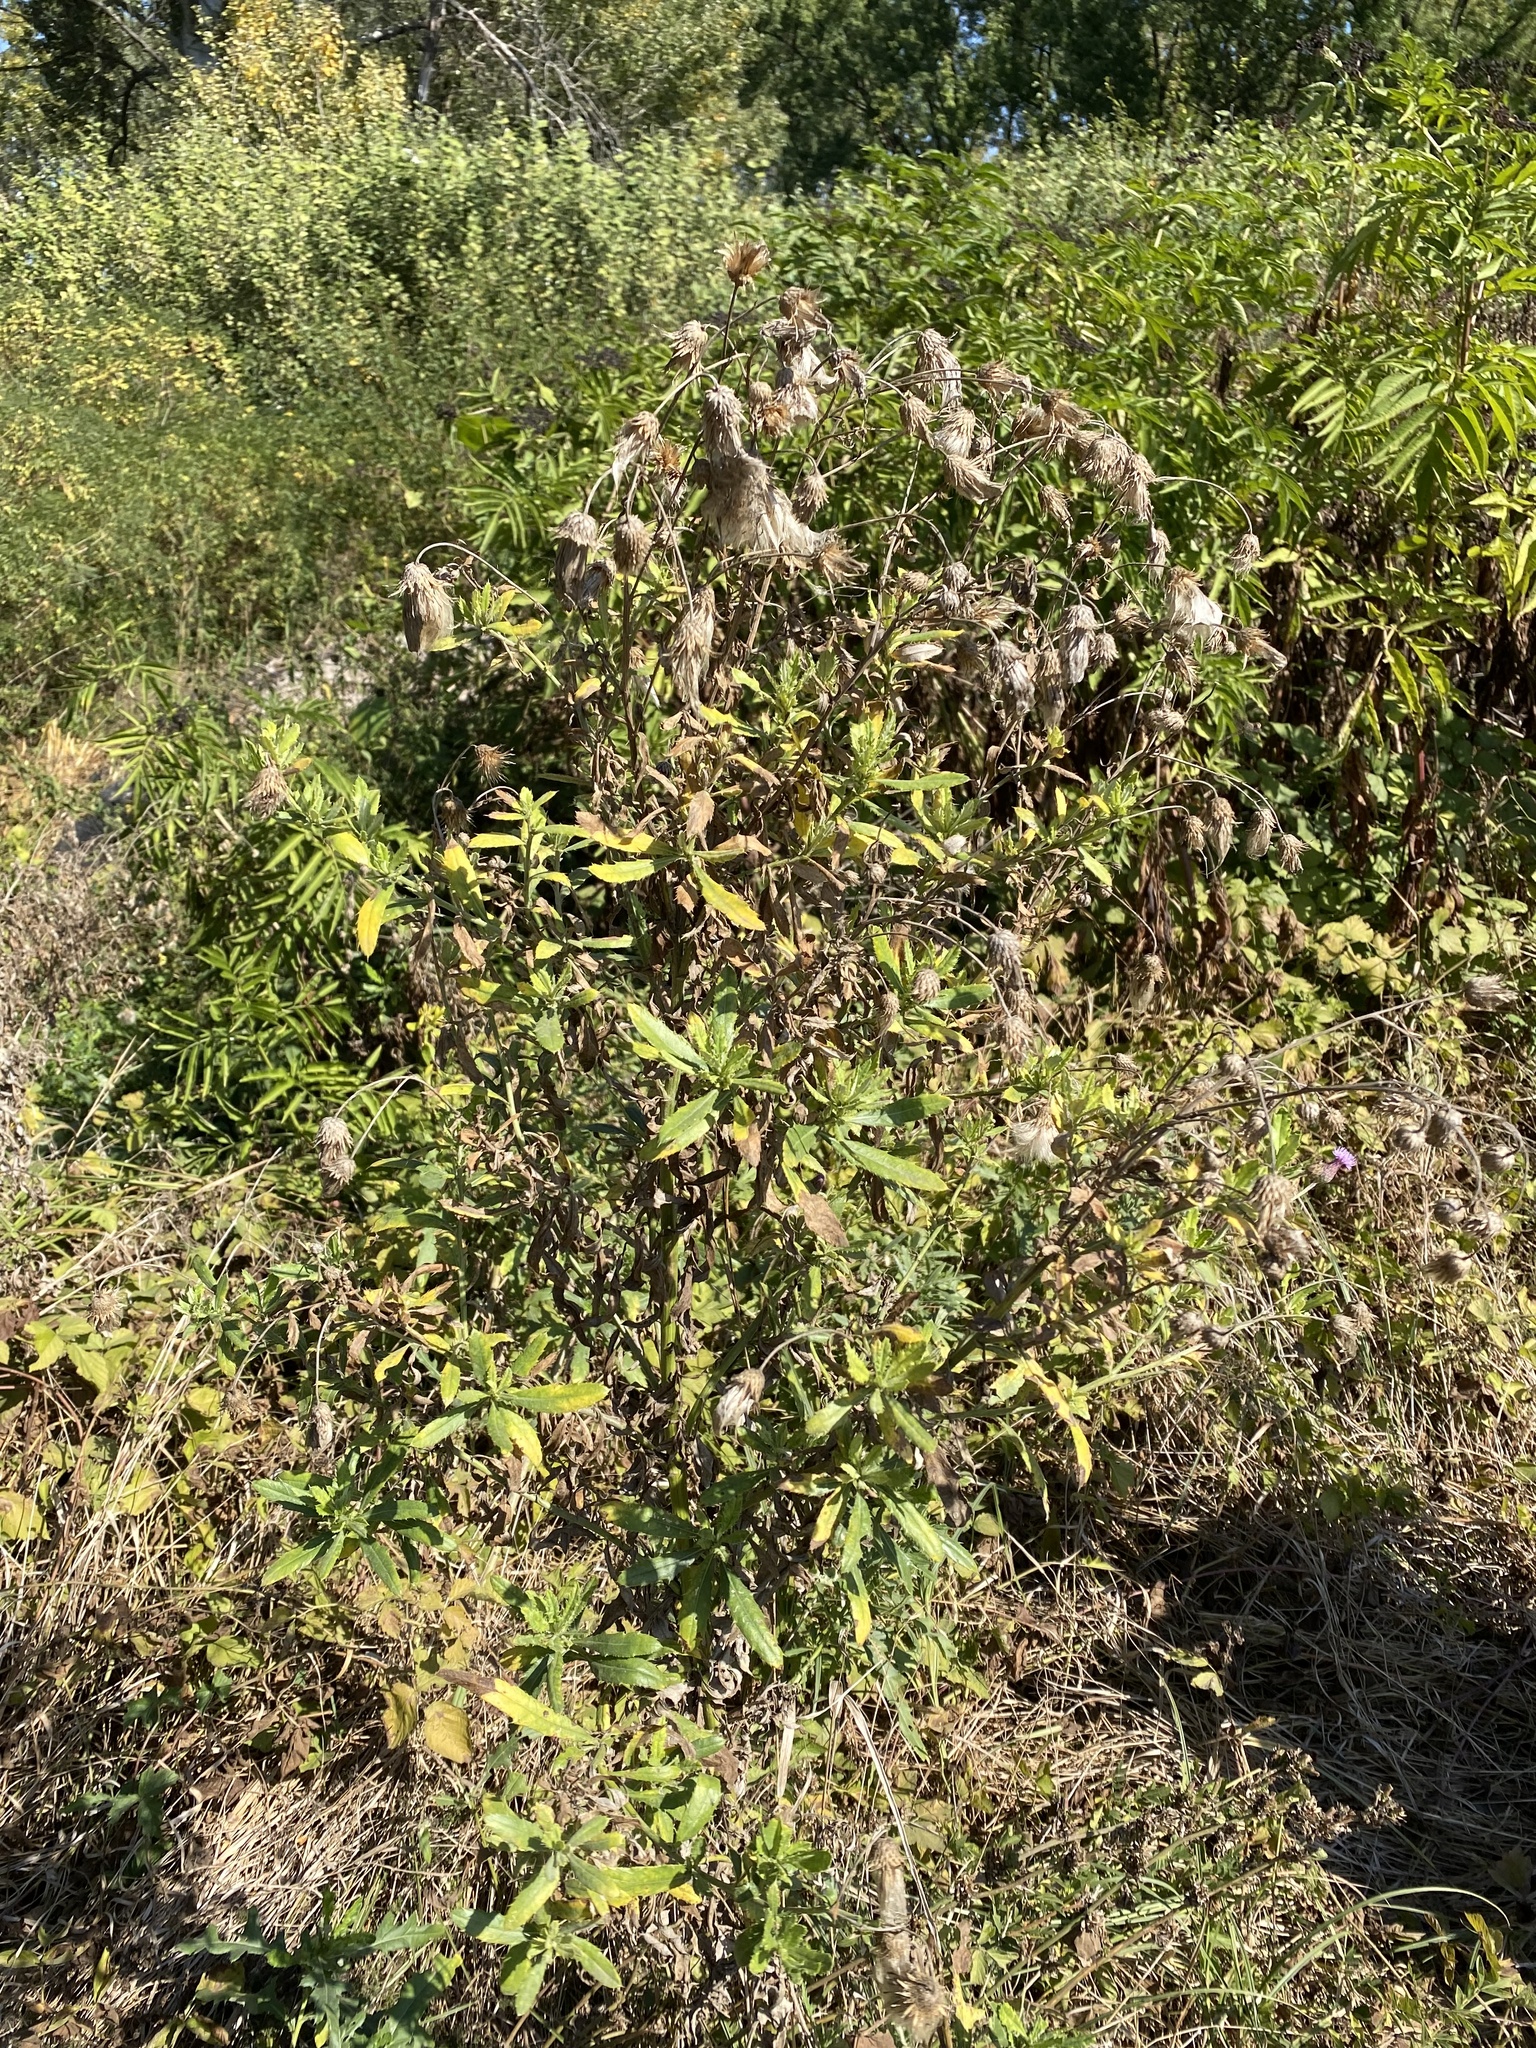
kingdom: Plantae
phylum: Tracheophyta
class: Magnoliopsida
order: Asterales
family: Asteraceae
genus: Cirsium
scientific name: Cirsium arvense
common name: Creeping thistle
